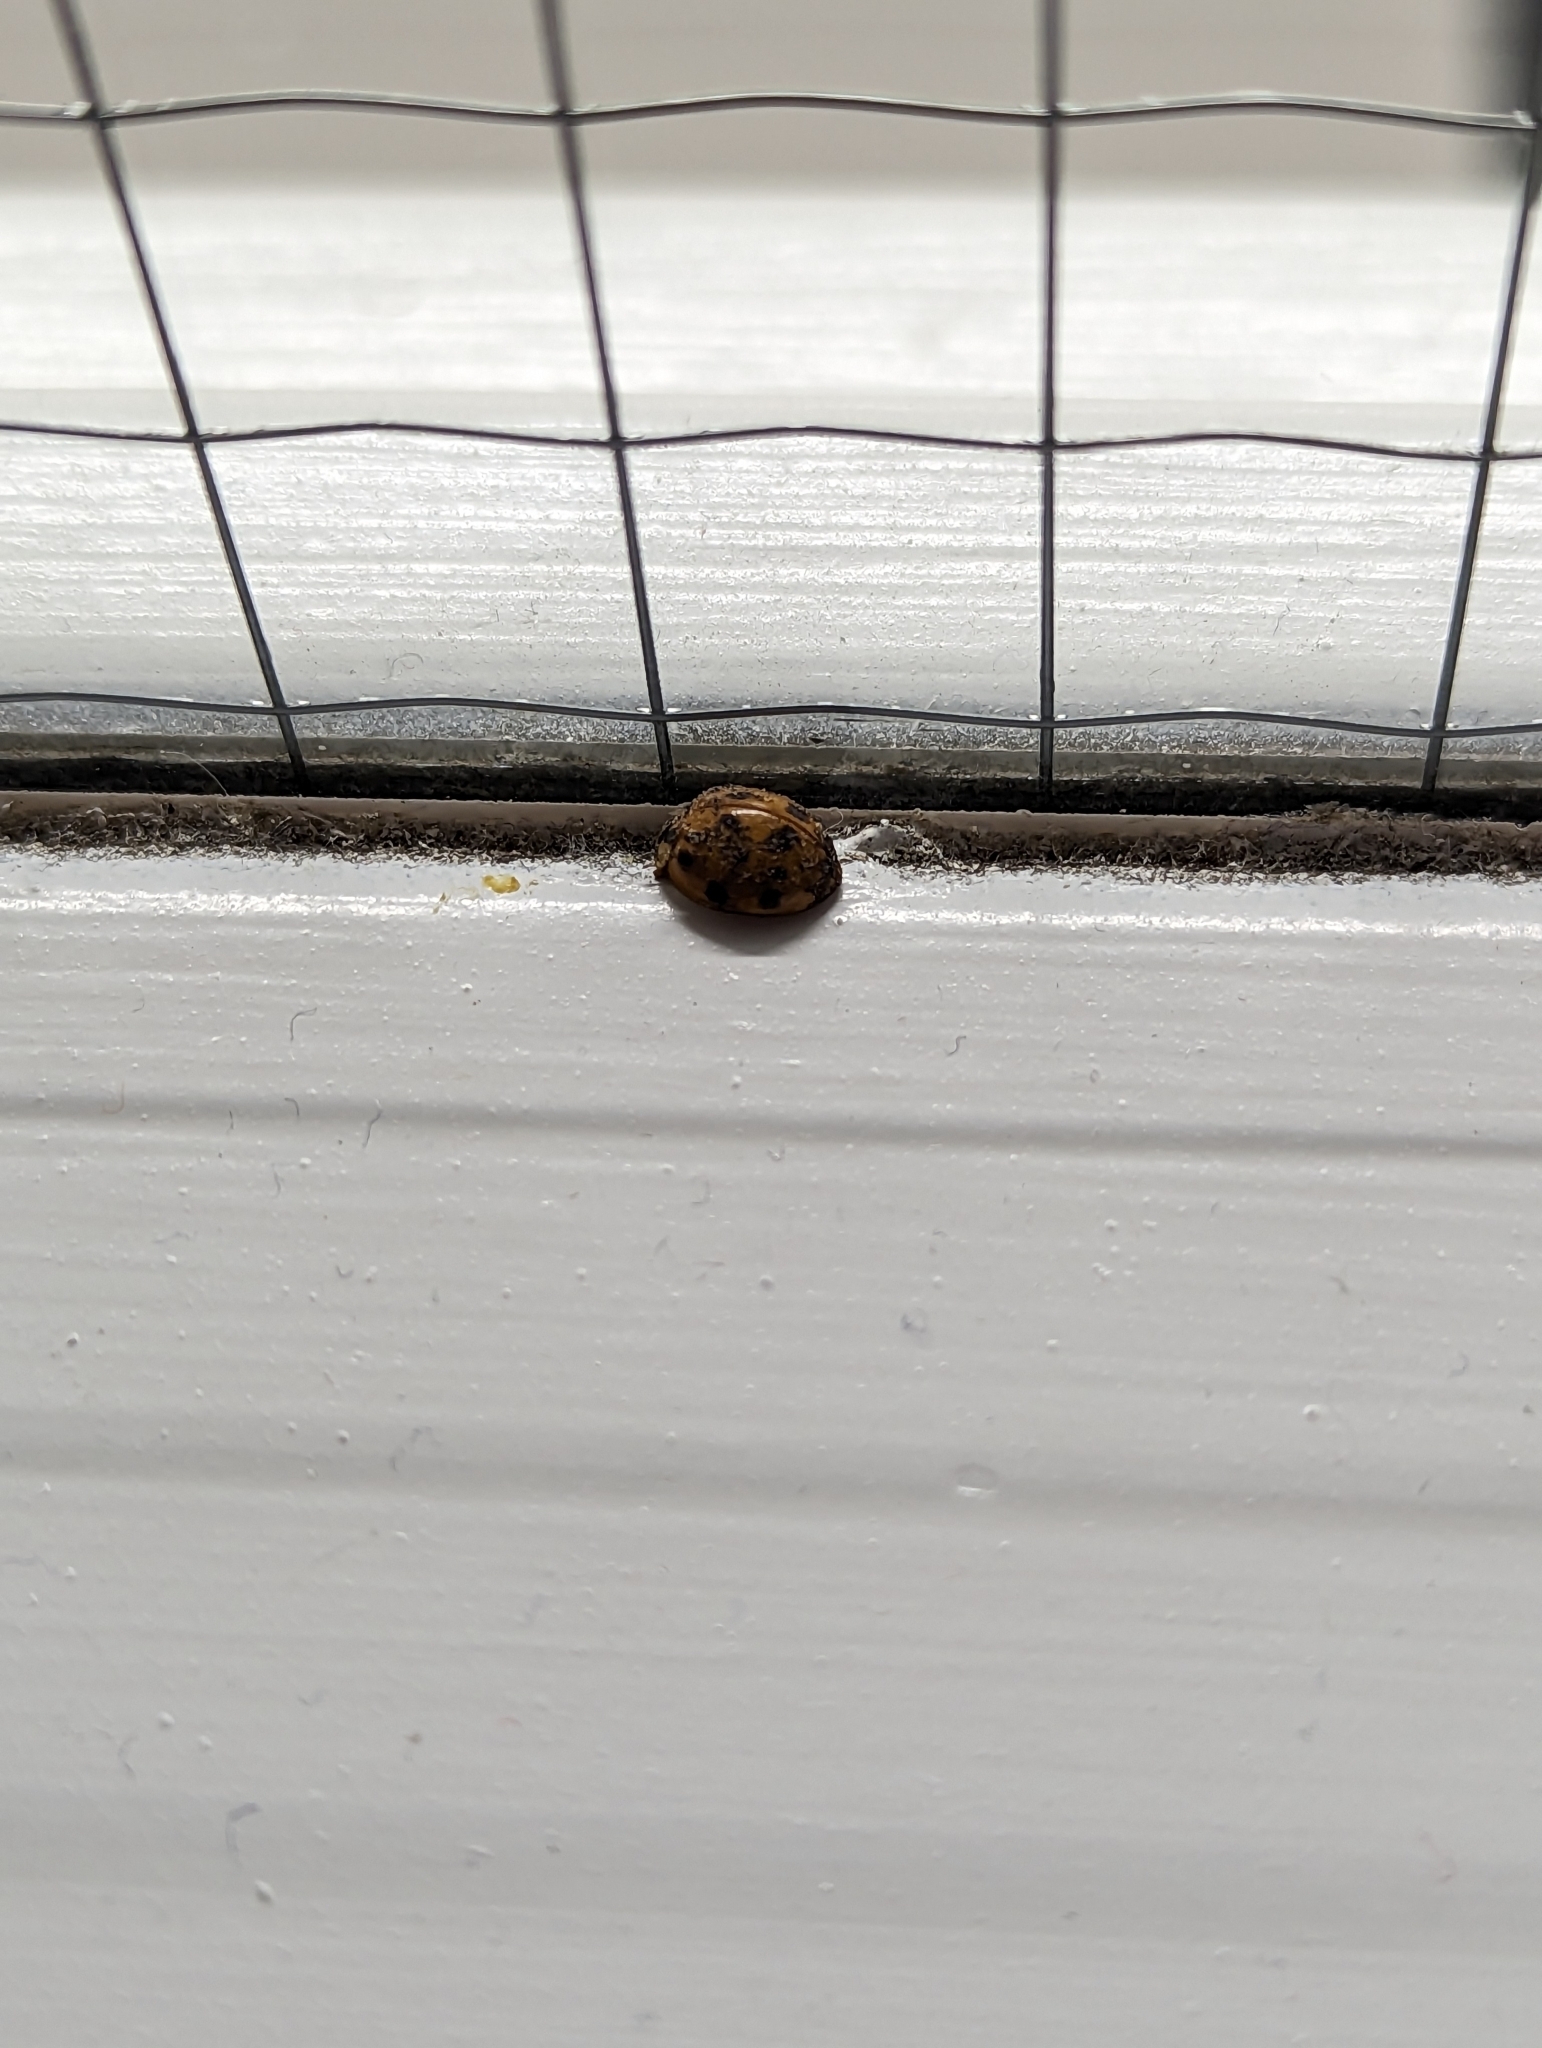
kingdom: Animalia
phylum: Arthropoda
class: Insecta
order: Coleoptera
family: Coccinellidae
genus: Harmonia
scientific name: Harmonia axyridis
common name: Harlequin ladybird
